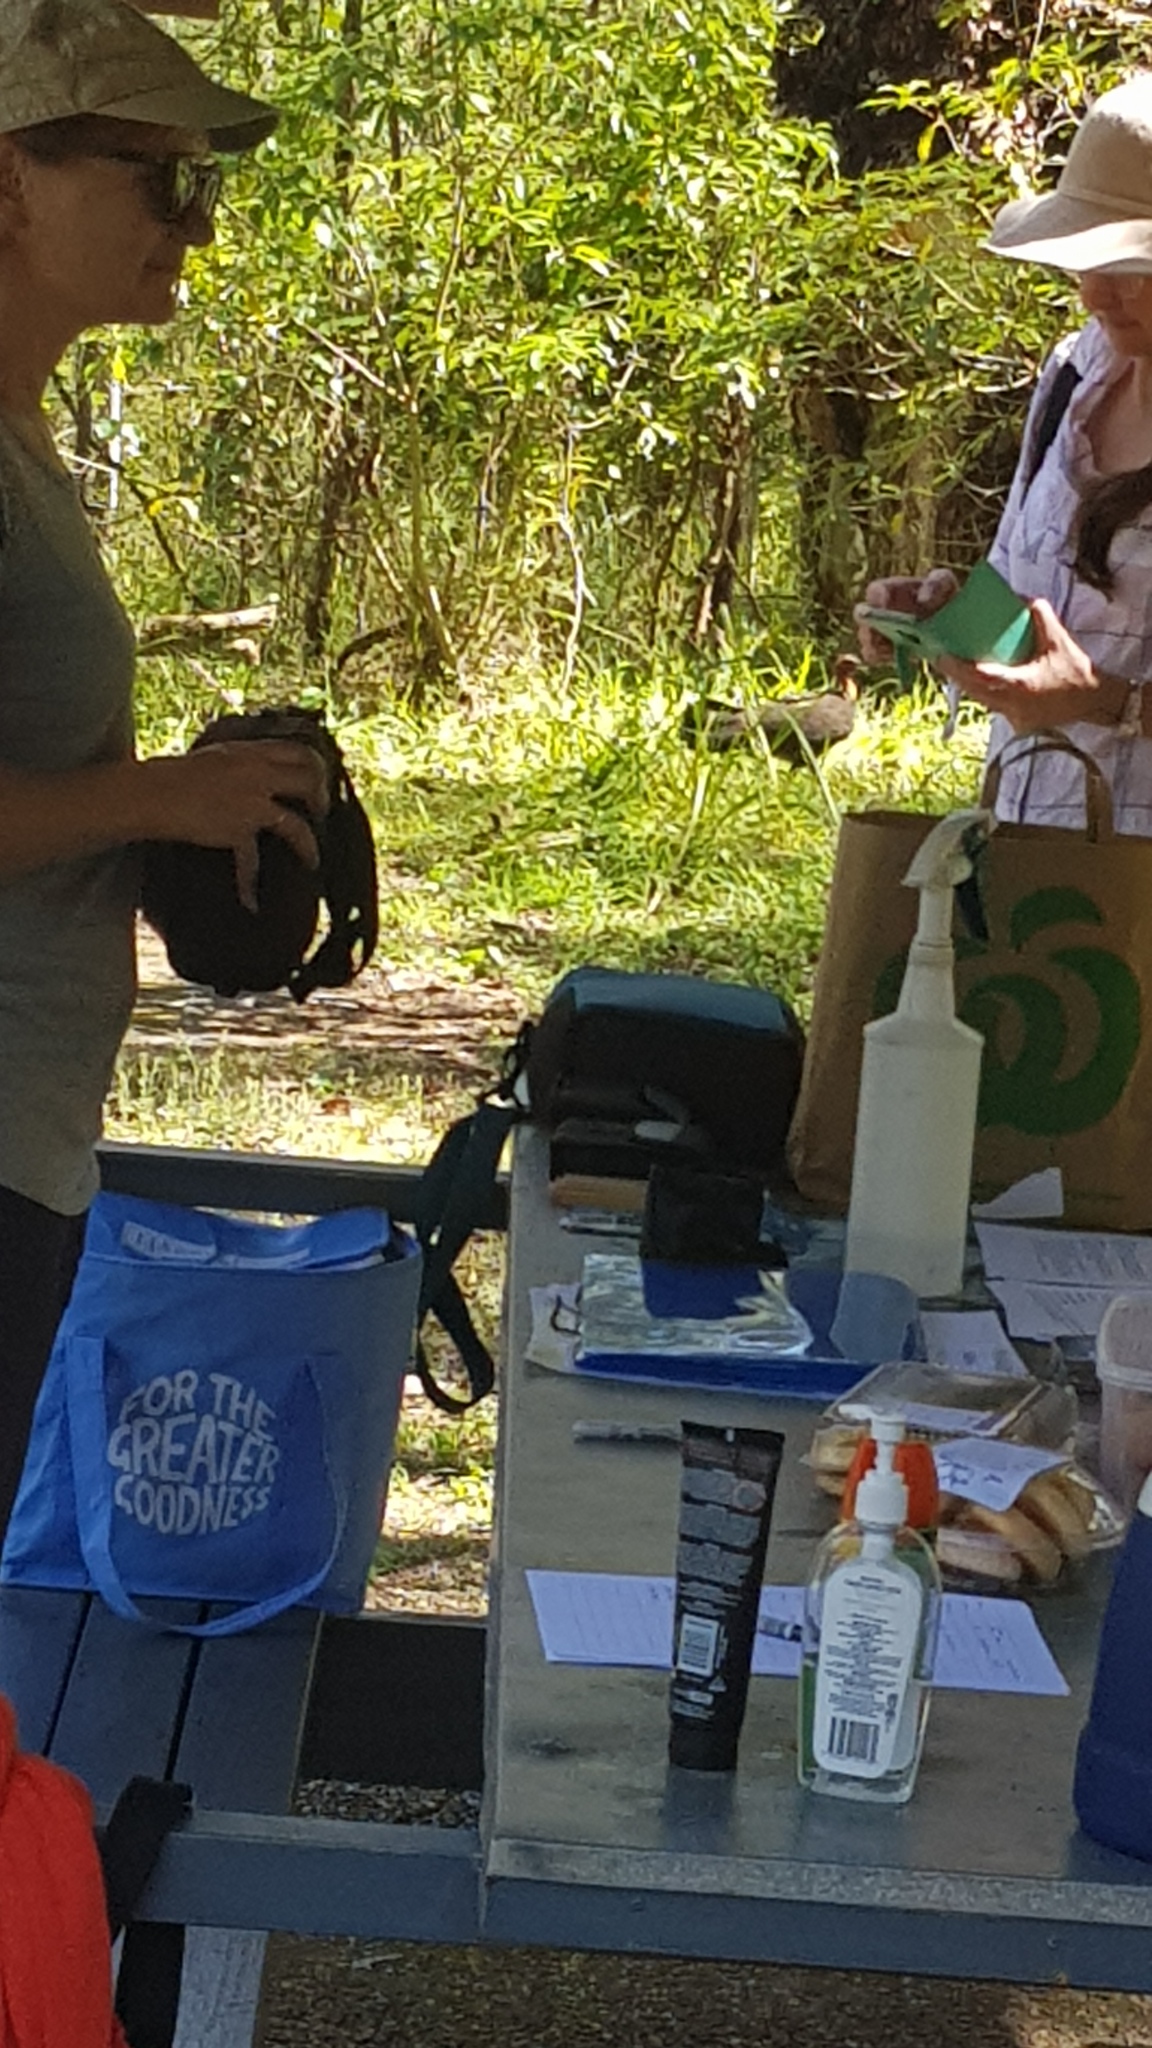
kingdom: Animalia
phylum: Chordata
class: Aves
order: Galliformes
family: Megapodiidae
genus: Alectura
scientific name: Alectura lathami
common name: Australian brushturkey
